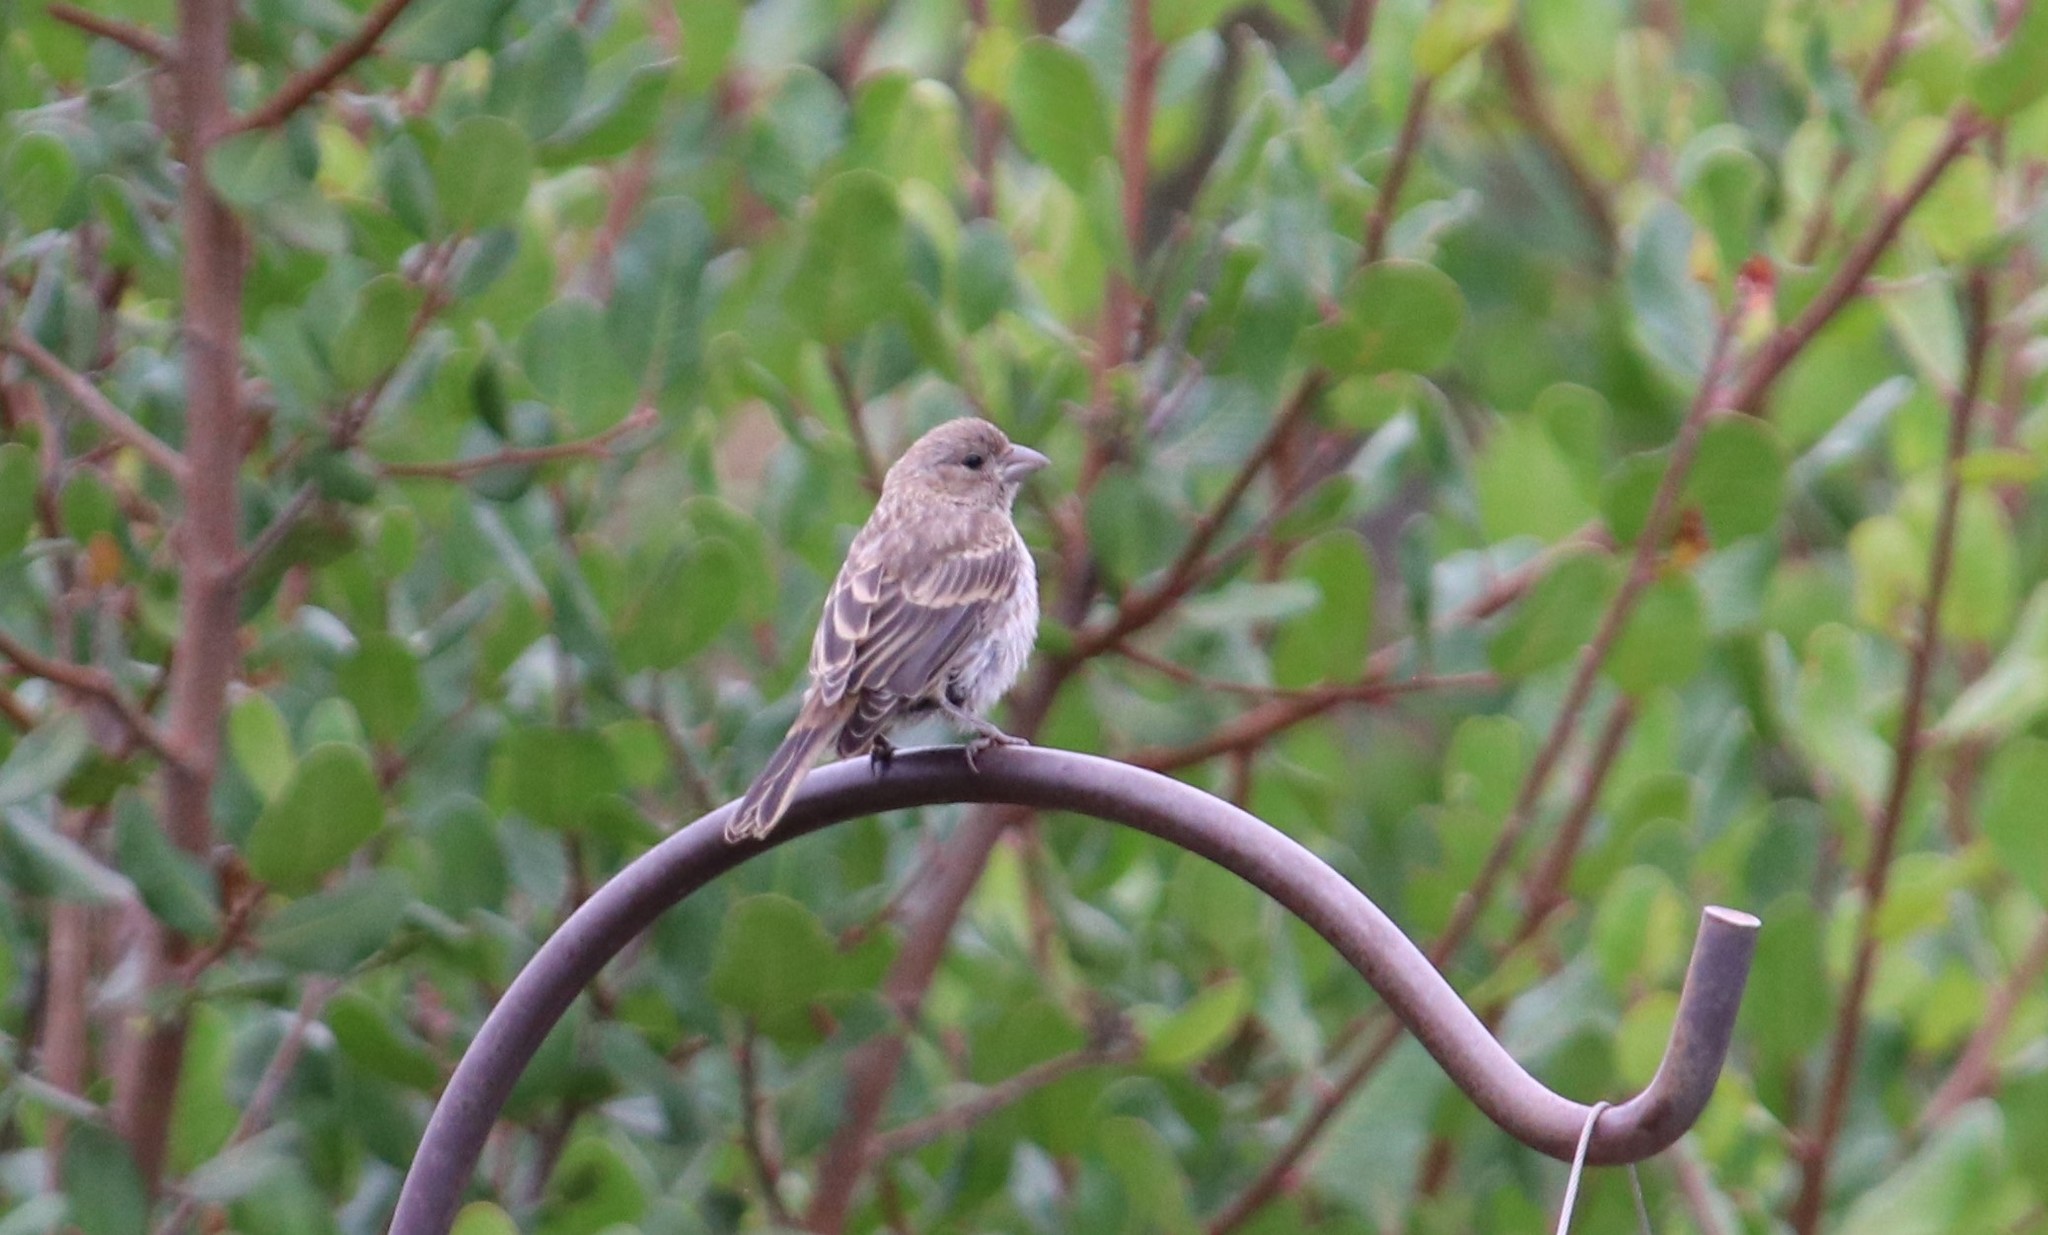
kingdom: Animalia
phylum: Chordata
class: Aves
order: Passeriformes
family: Fringillidae
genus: Haemorhous
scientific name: Haemorhous mexicanus
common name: House finch
